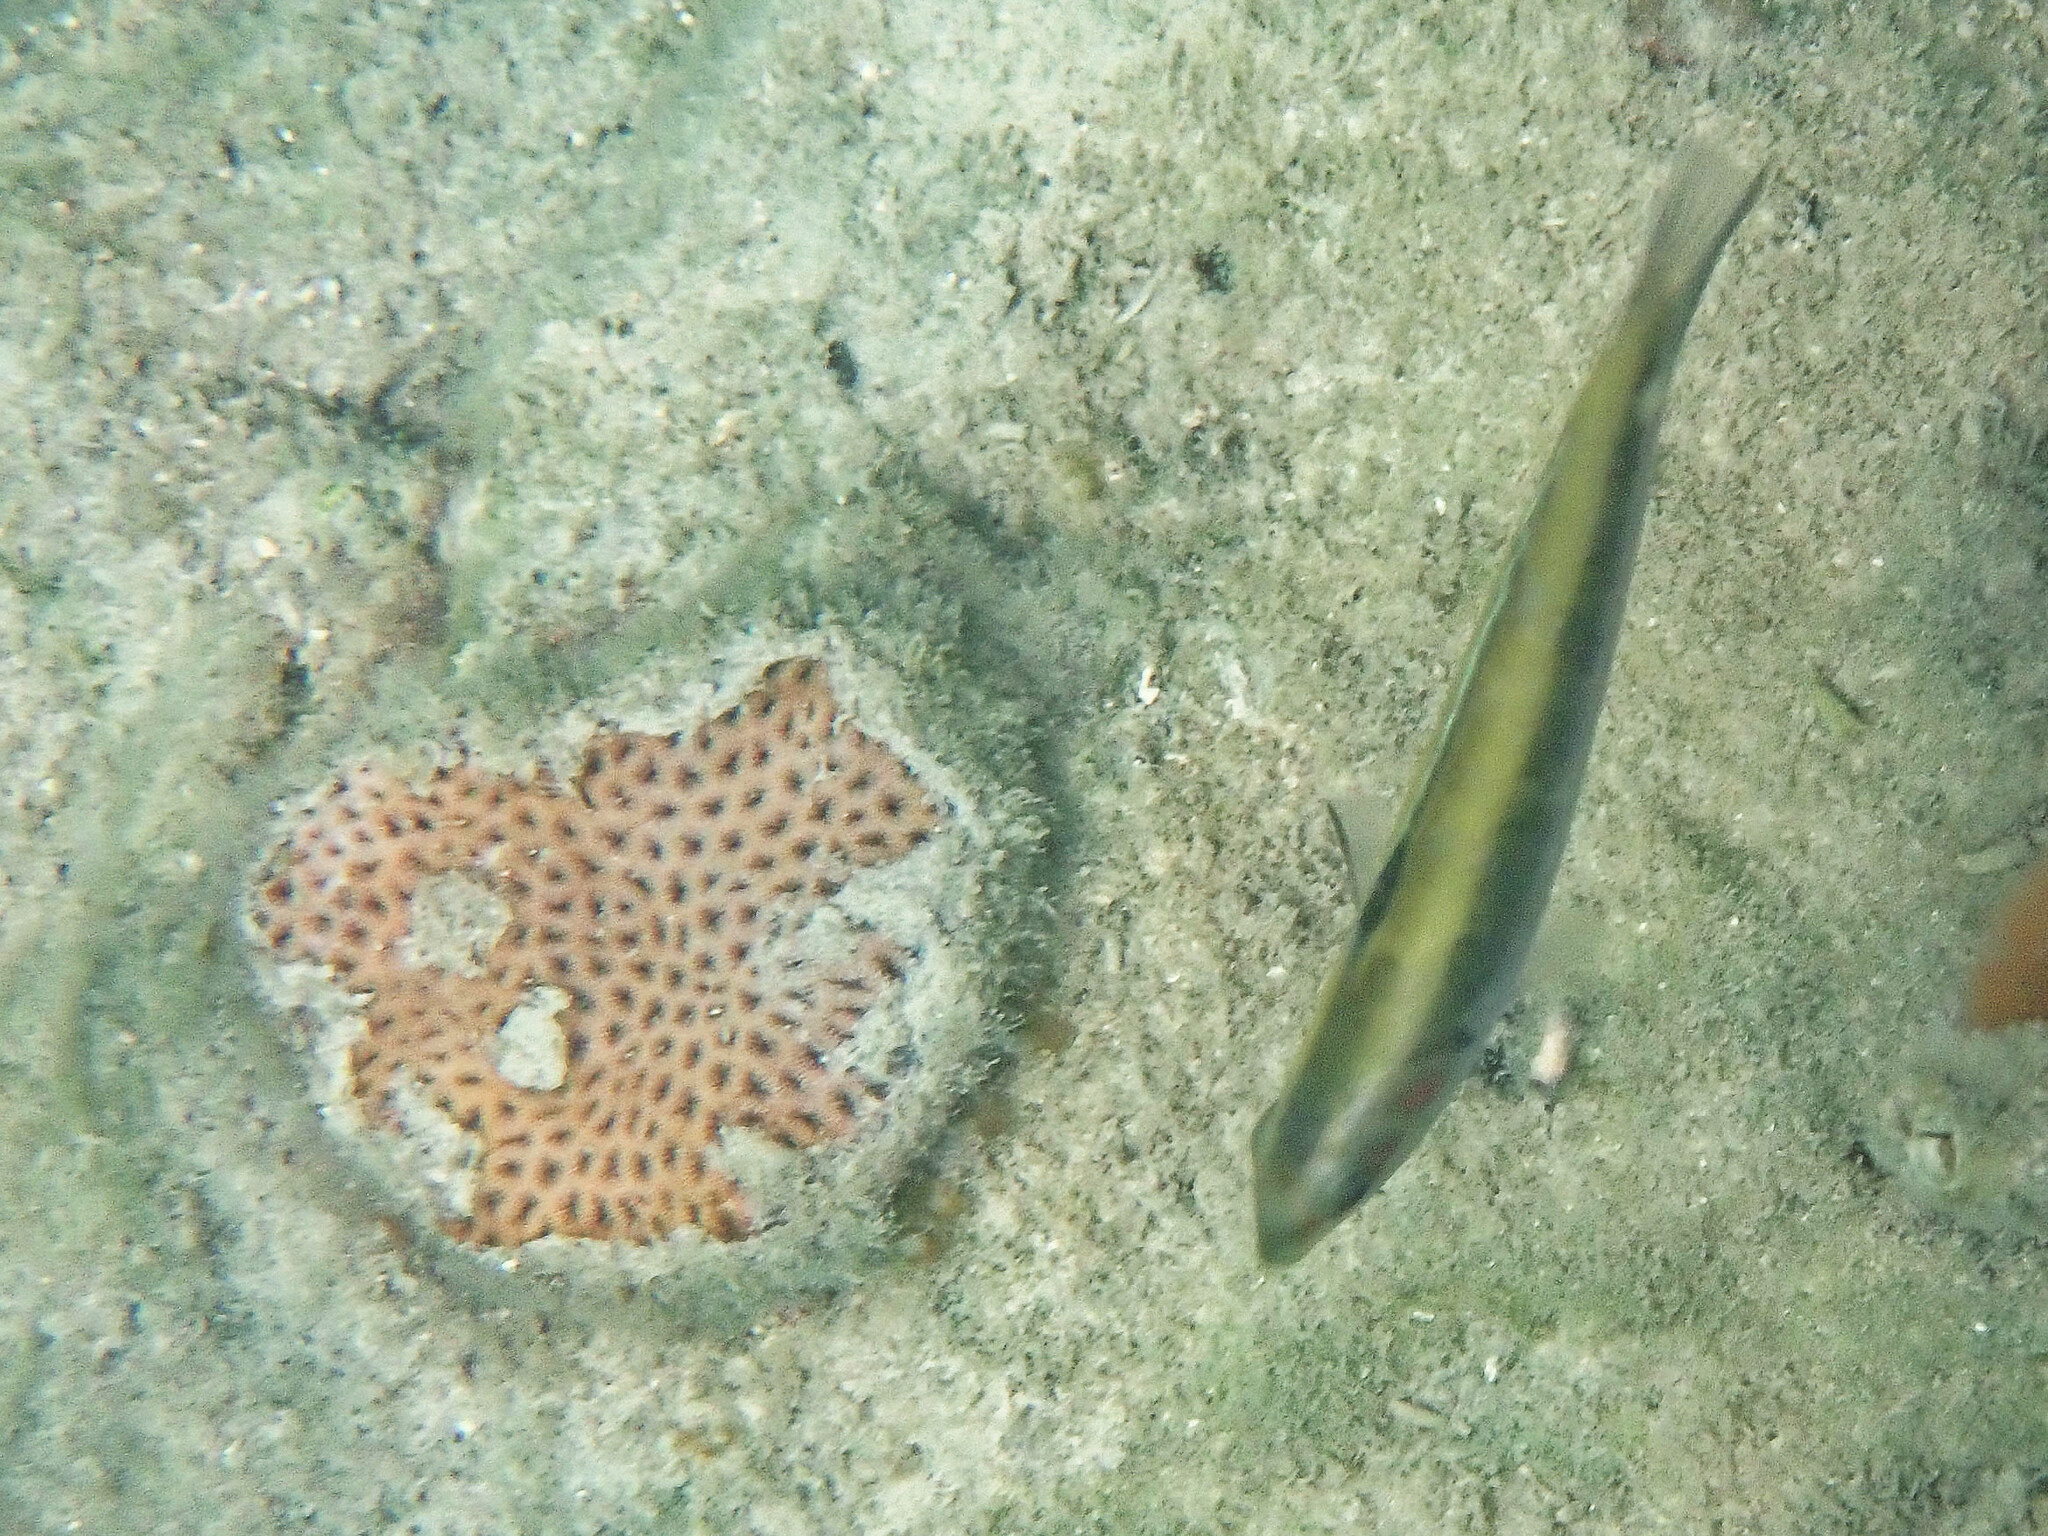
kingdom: Animalia
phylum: Cnidaria
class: Anthozoa
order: Scleractinia
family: Rhizangiidae
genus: Siderastrea
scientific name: Siderastrea radians
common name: Lesser starlet coral
